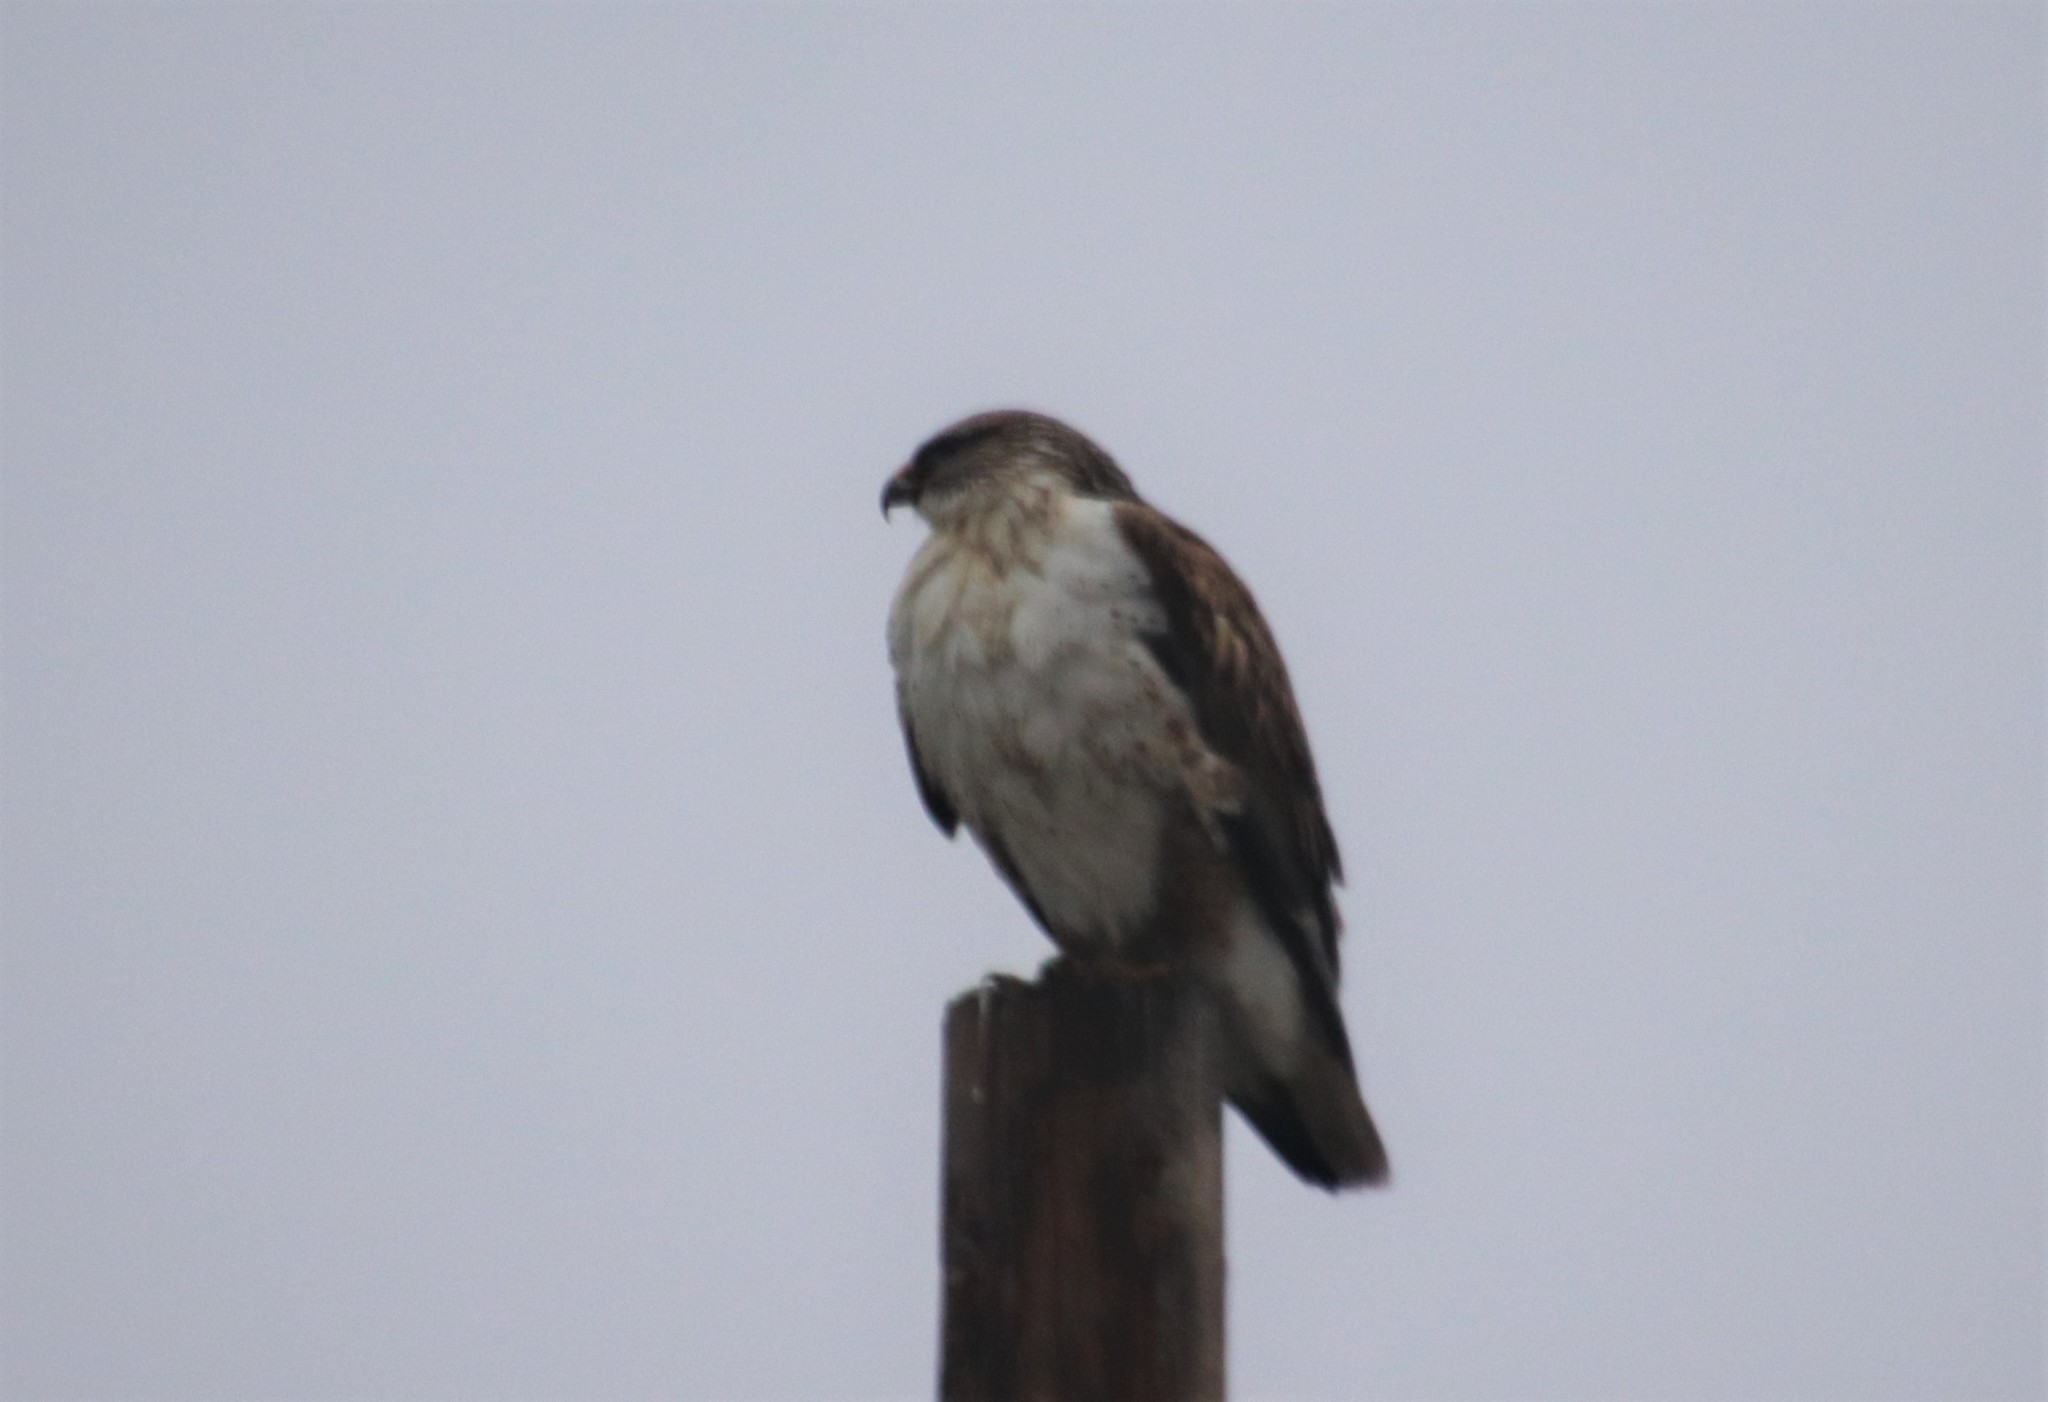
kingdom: Animalia
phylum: Chordata
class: Aves
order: Accipitriformes
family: Accipitridae
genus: Buteo
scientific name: Buteo regalis
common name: Ferruginous hawk
